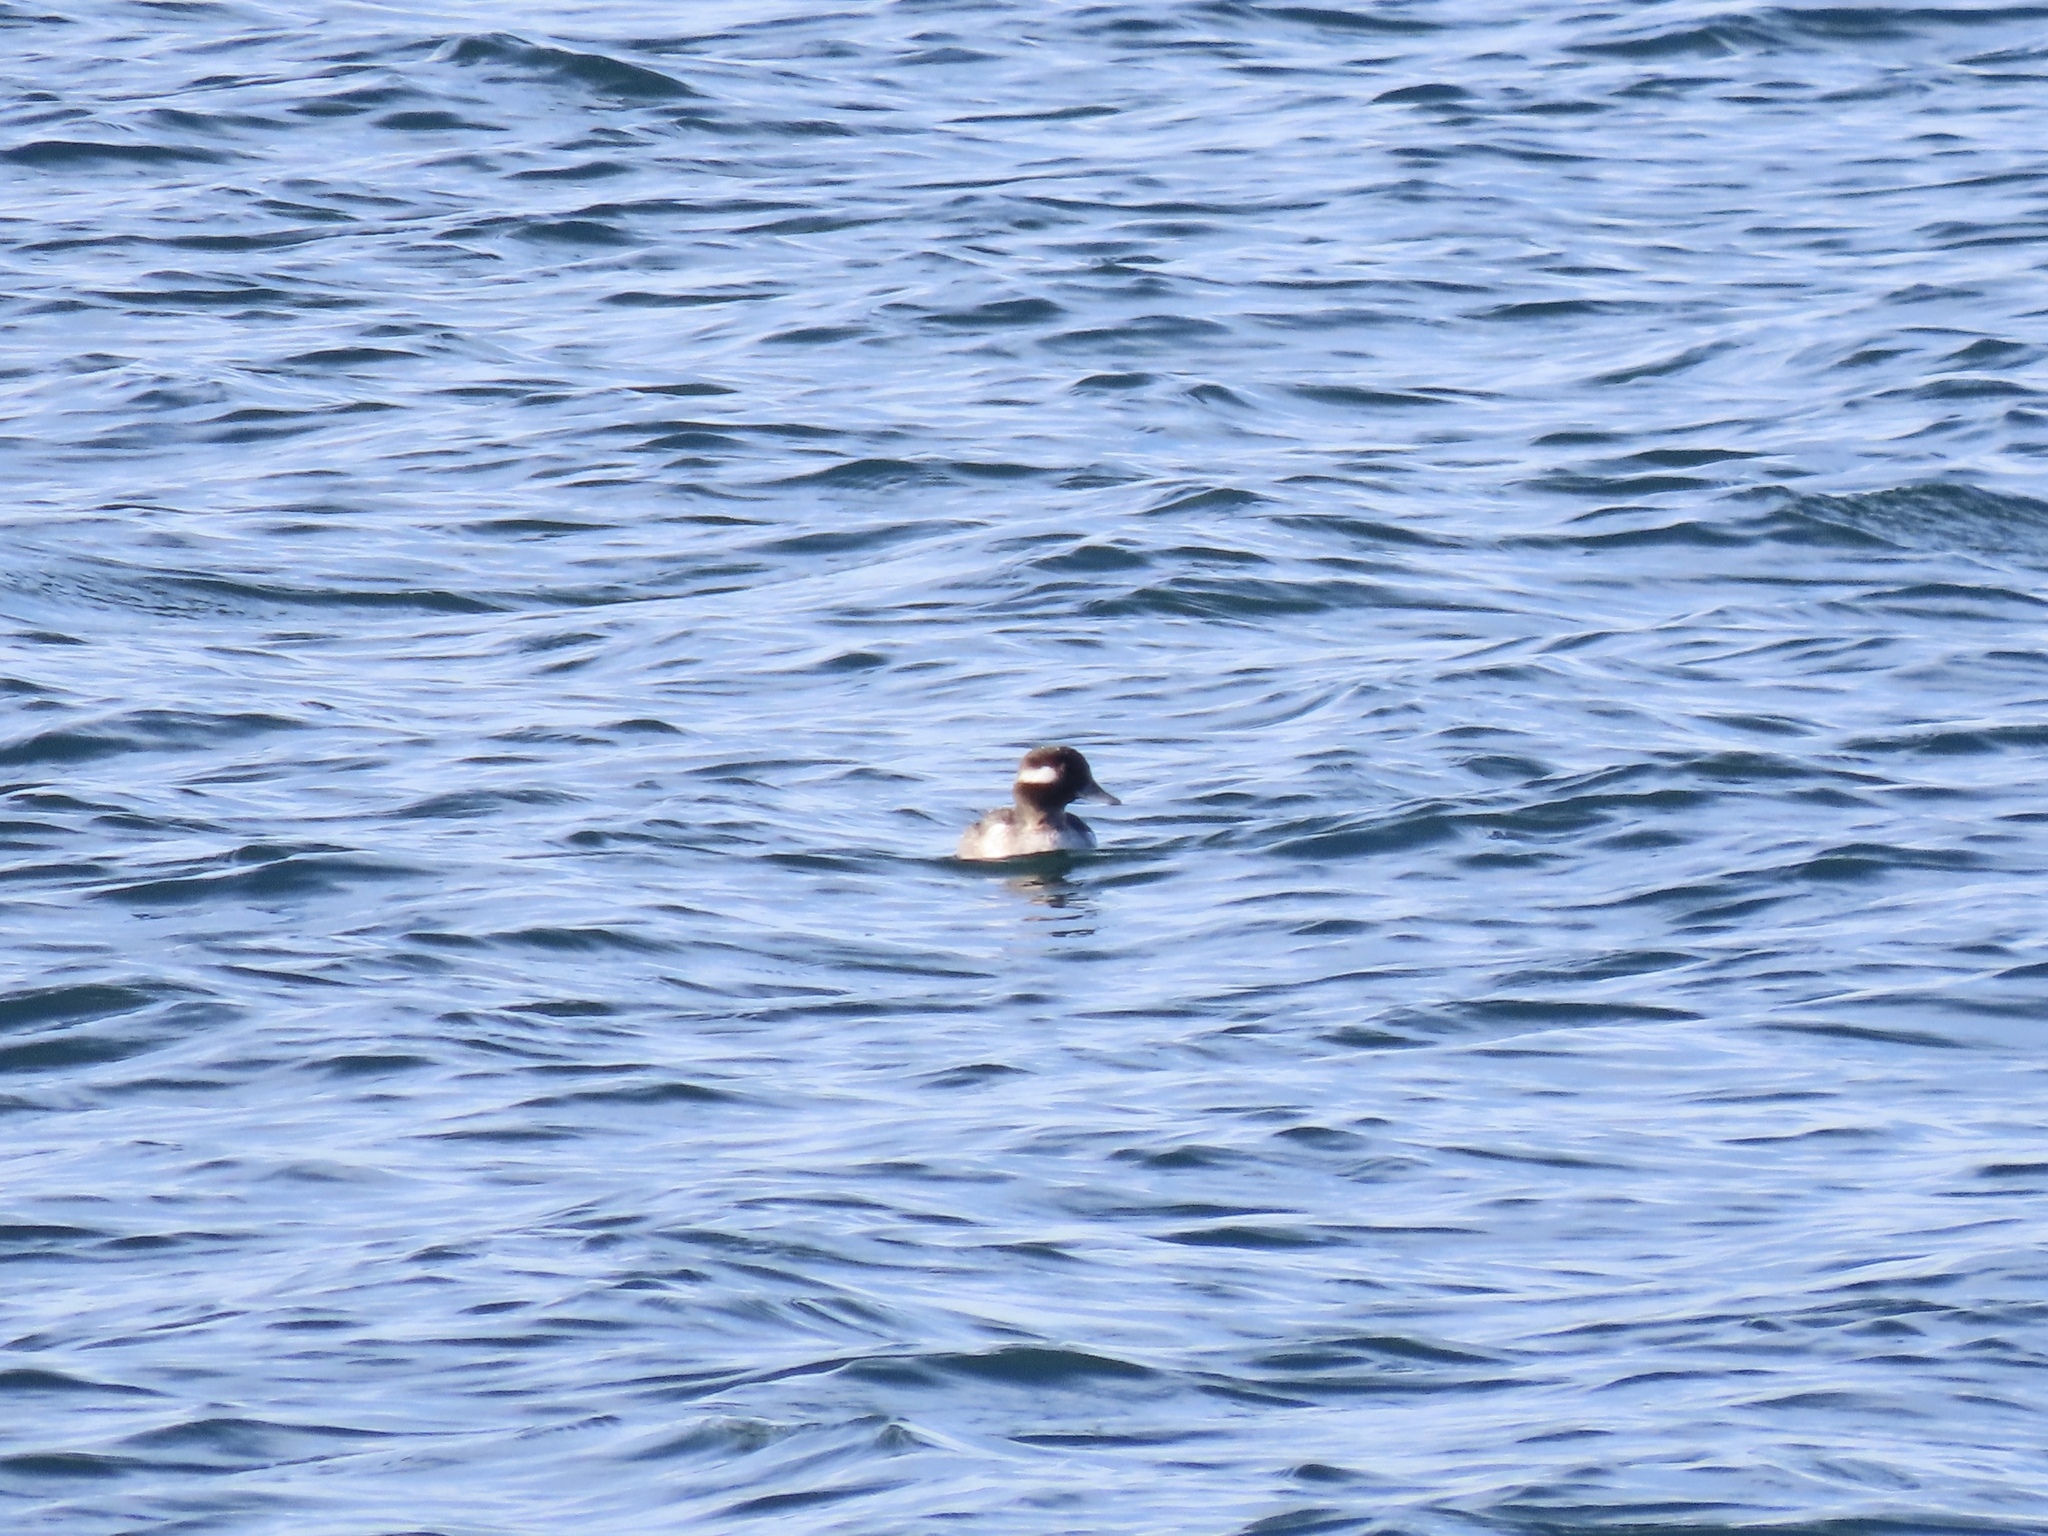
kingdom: Animalia
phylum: Chordata
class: Aves
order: Anseriformes
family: Anatidae
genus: Bucephala
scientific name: Bucephala albeola
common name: Bufflehead
